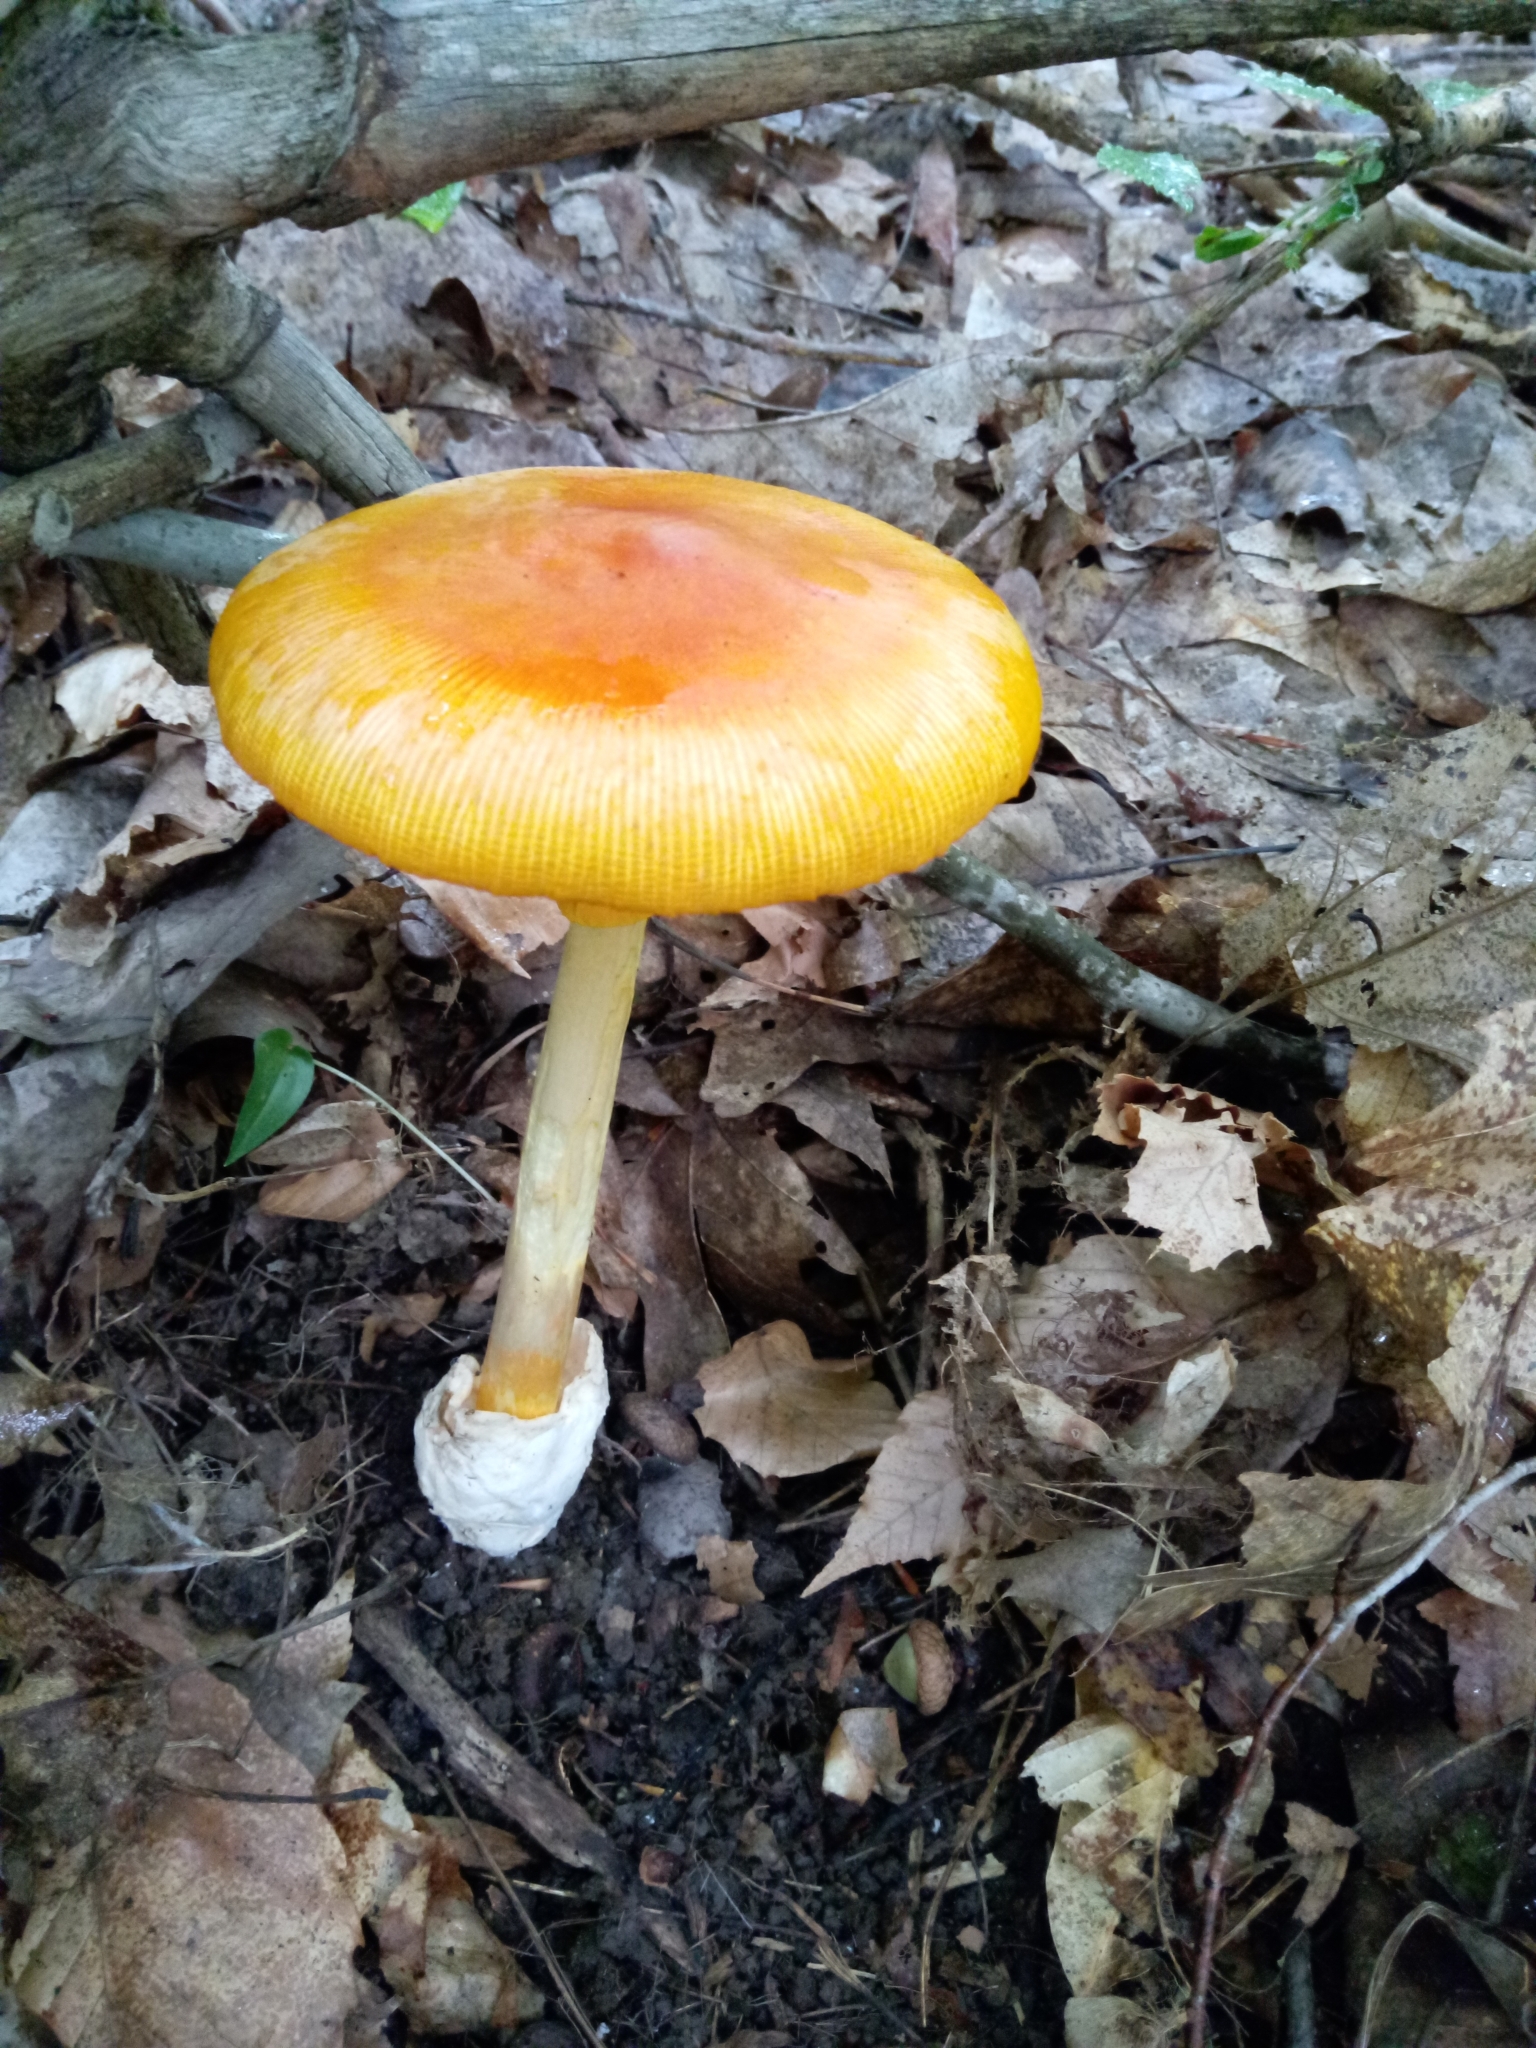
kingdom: Fungi
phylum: Basidiomycota
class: Agaricomycetes
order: Agaricales
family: Amanitaceae
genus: Amanita
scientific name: Amanita jacksonii
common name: Jackson's slender caesar
